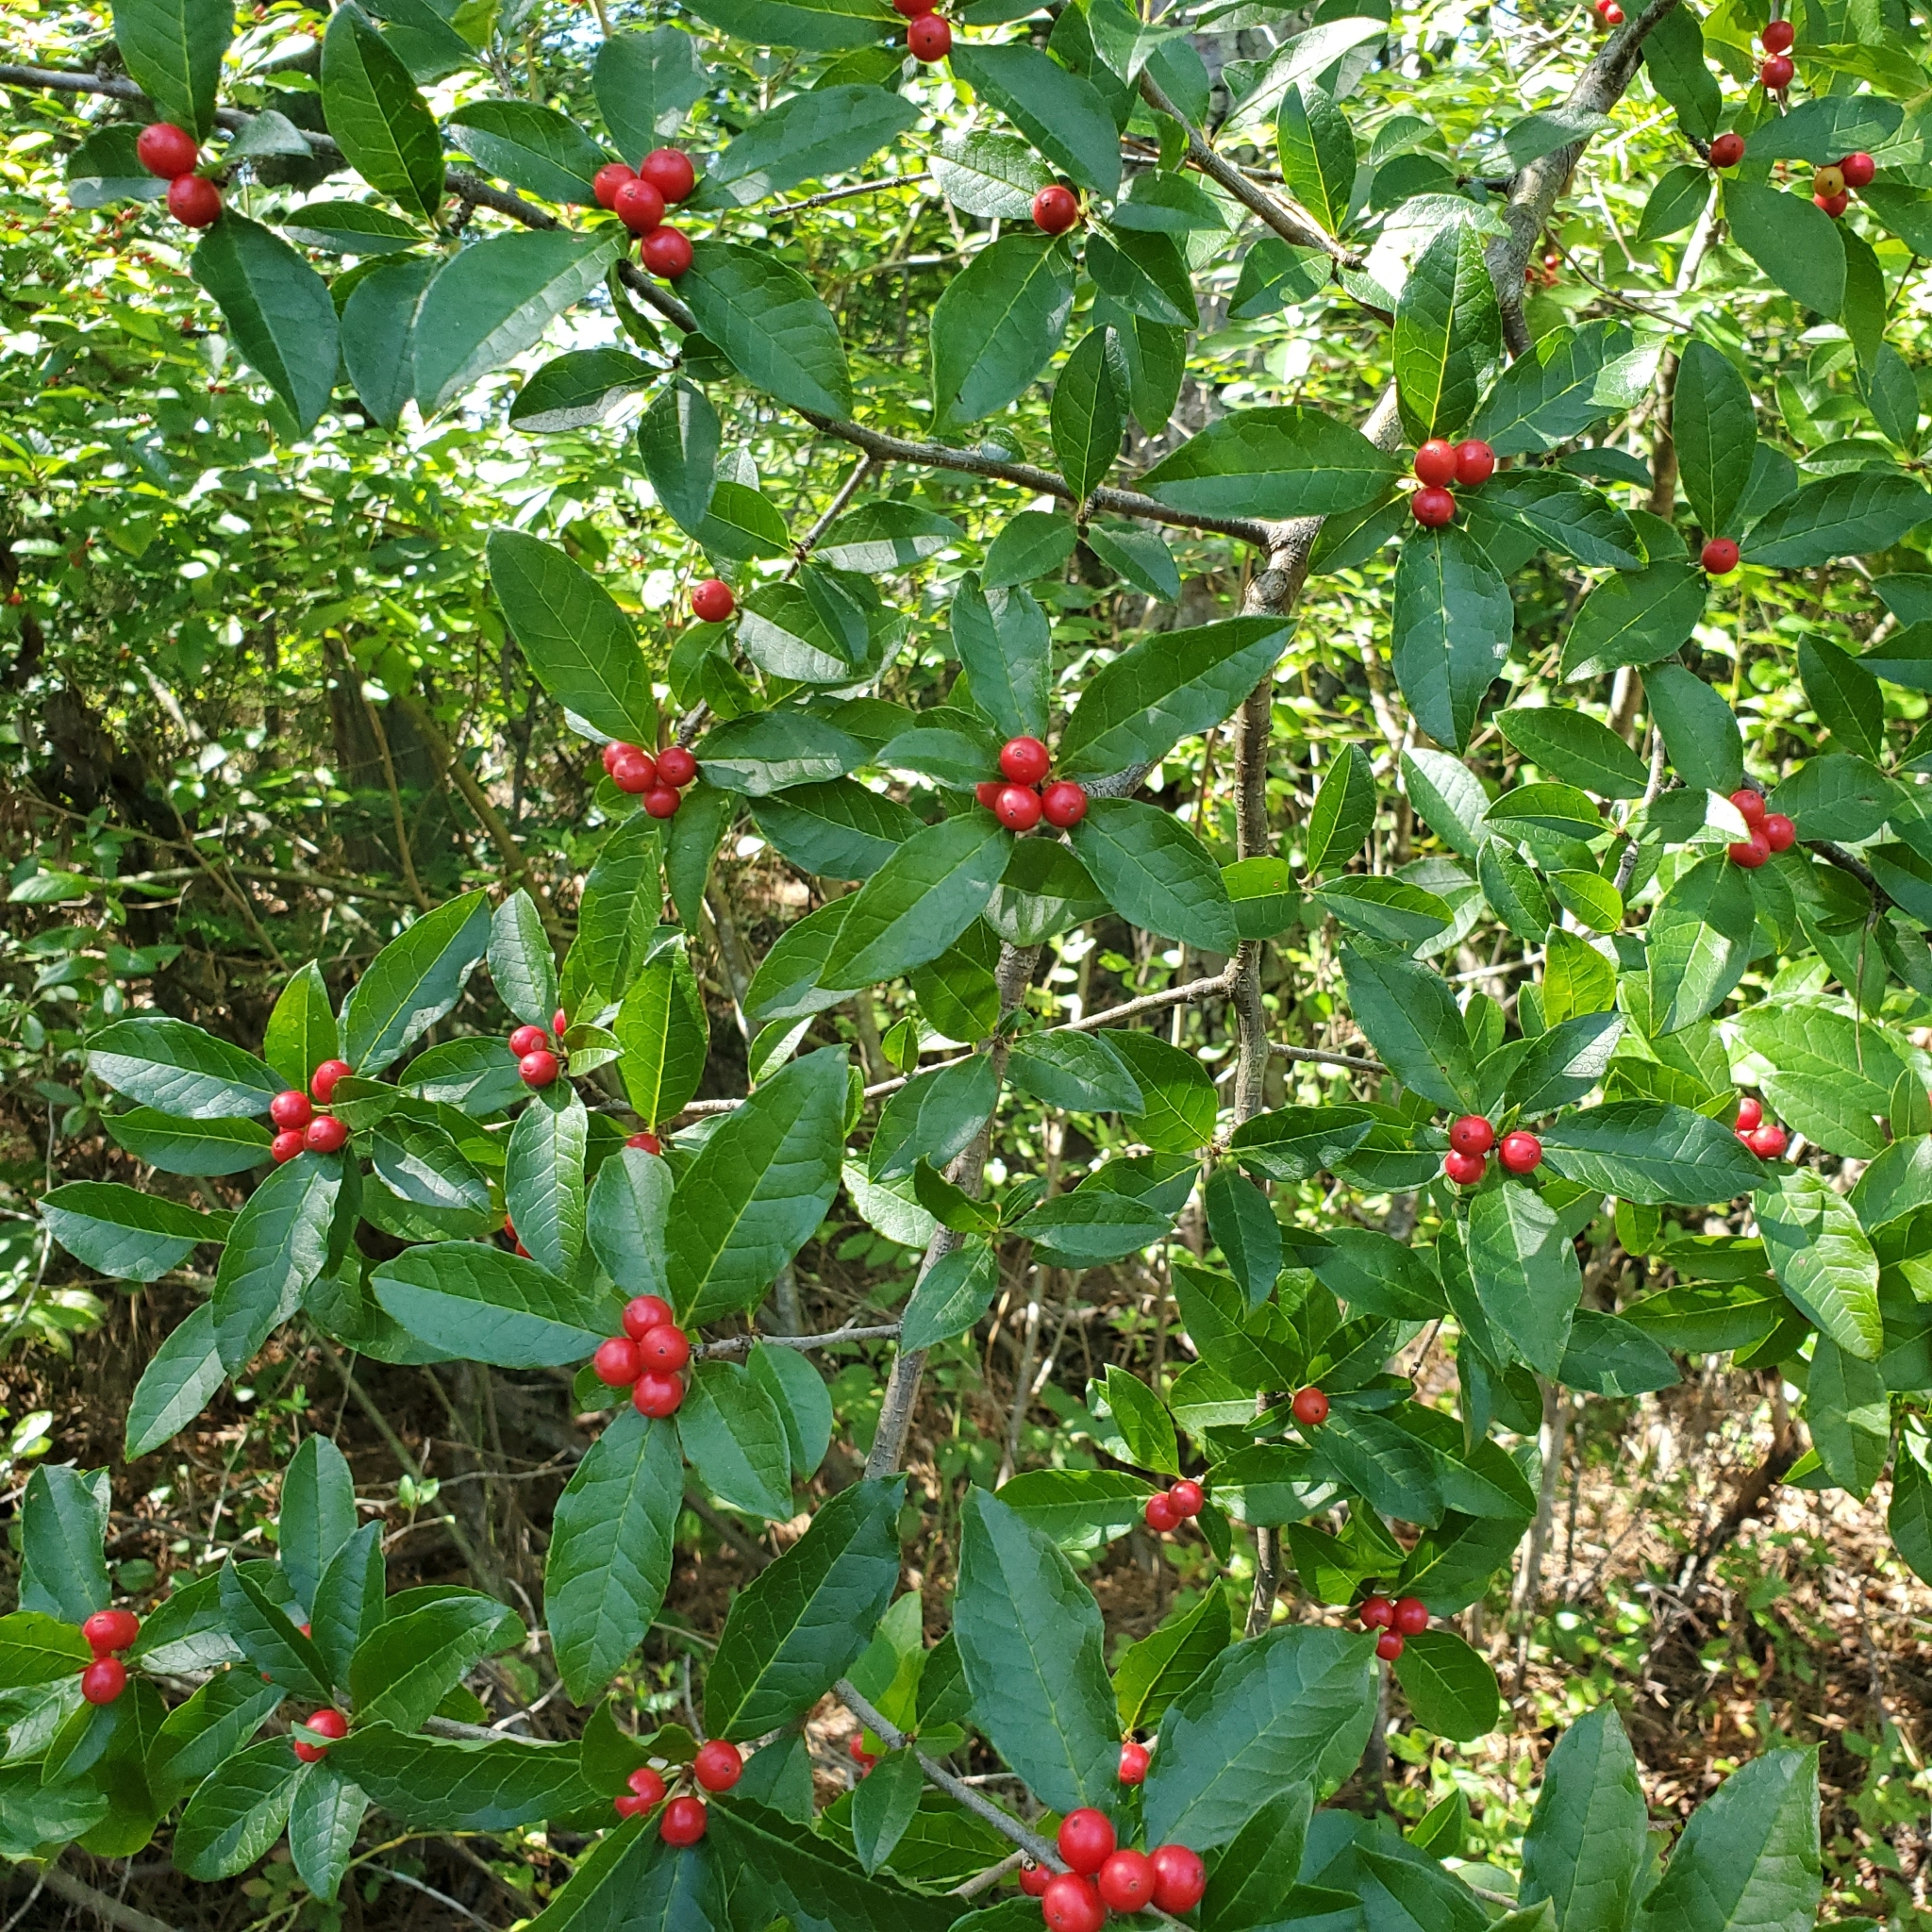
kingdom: Plantae
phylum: Tracheophyta
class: Magnoliopsida
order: Aquifoliales
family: Aquifoliaceae
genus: Ilex
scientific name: Ilex verticillata
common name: Virginia winterberry
